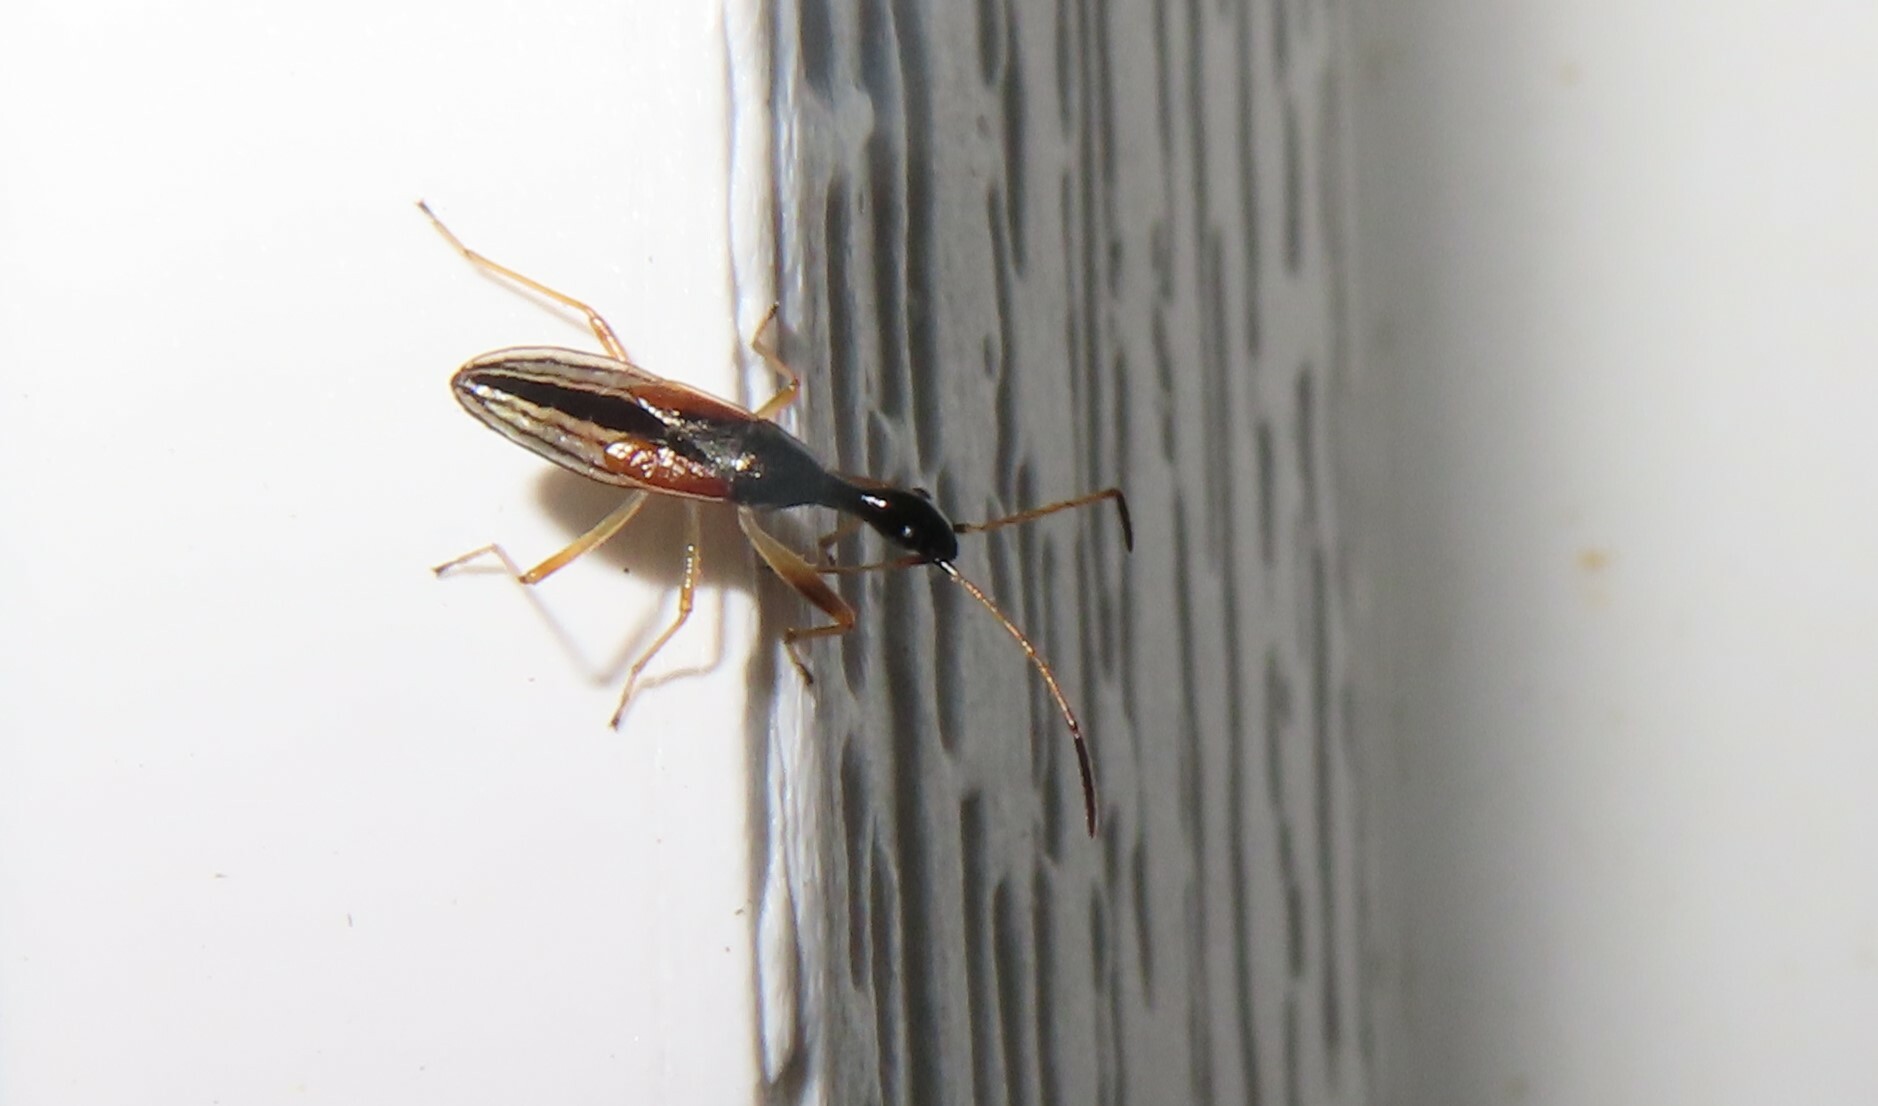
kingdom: Animalia
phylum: Arthropoda
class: Insecta
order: Hemiptera
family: Rhyparochromidae
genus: Myodocha
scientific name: Myodocha serripes
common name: Long-necked seed bug
